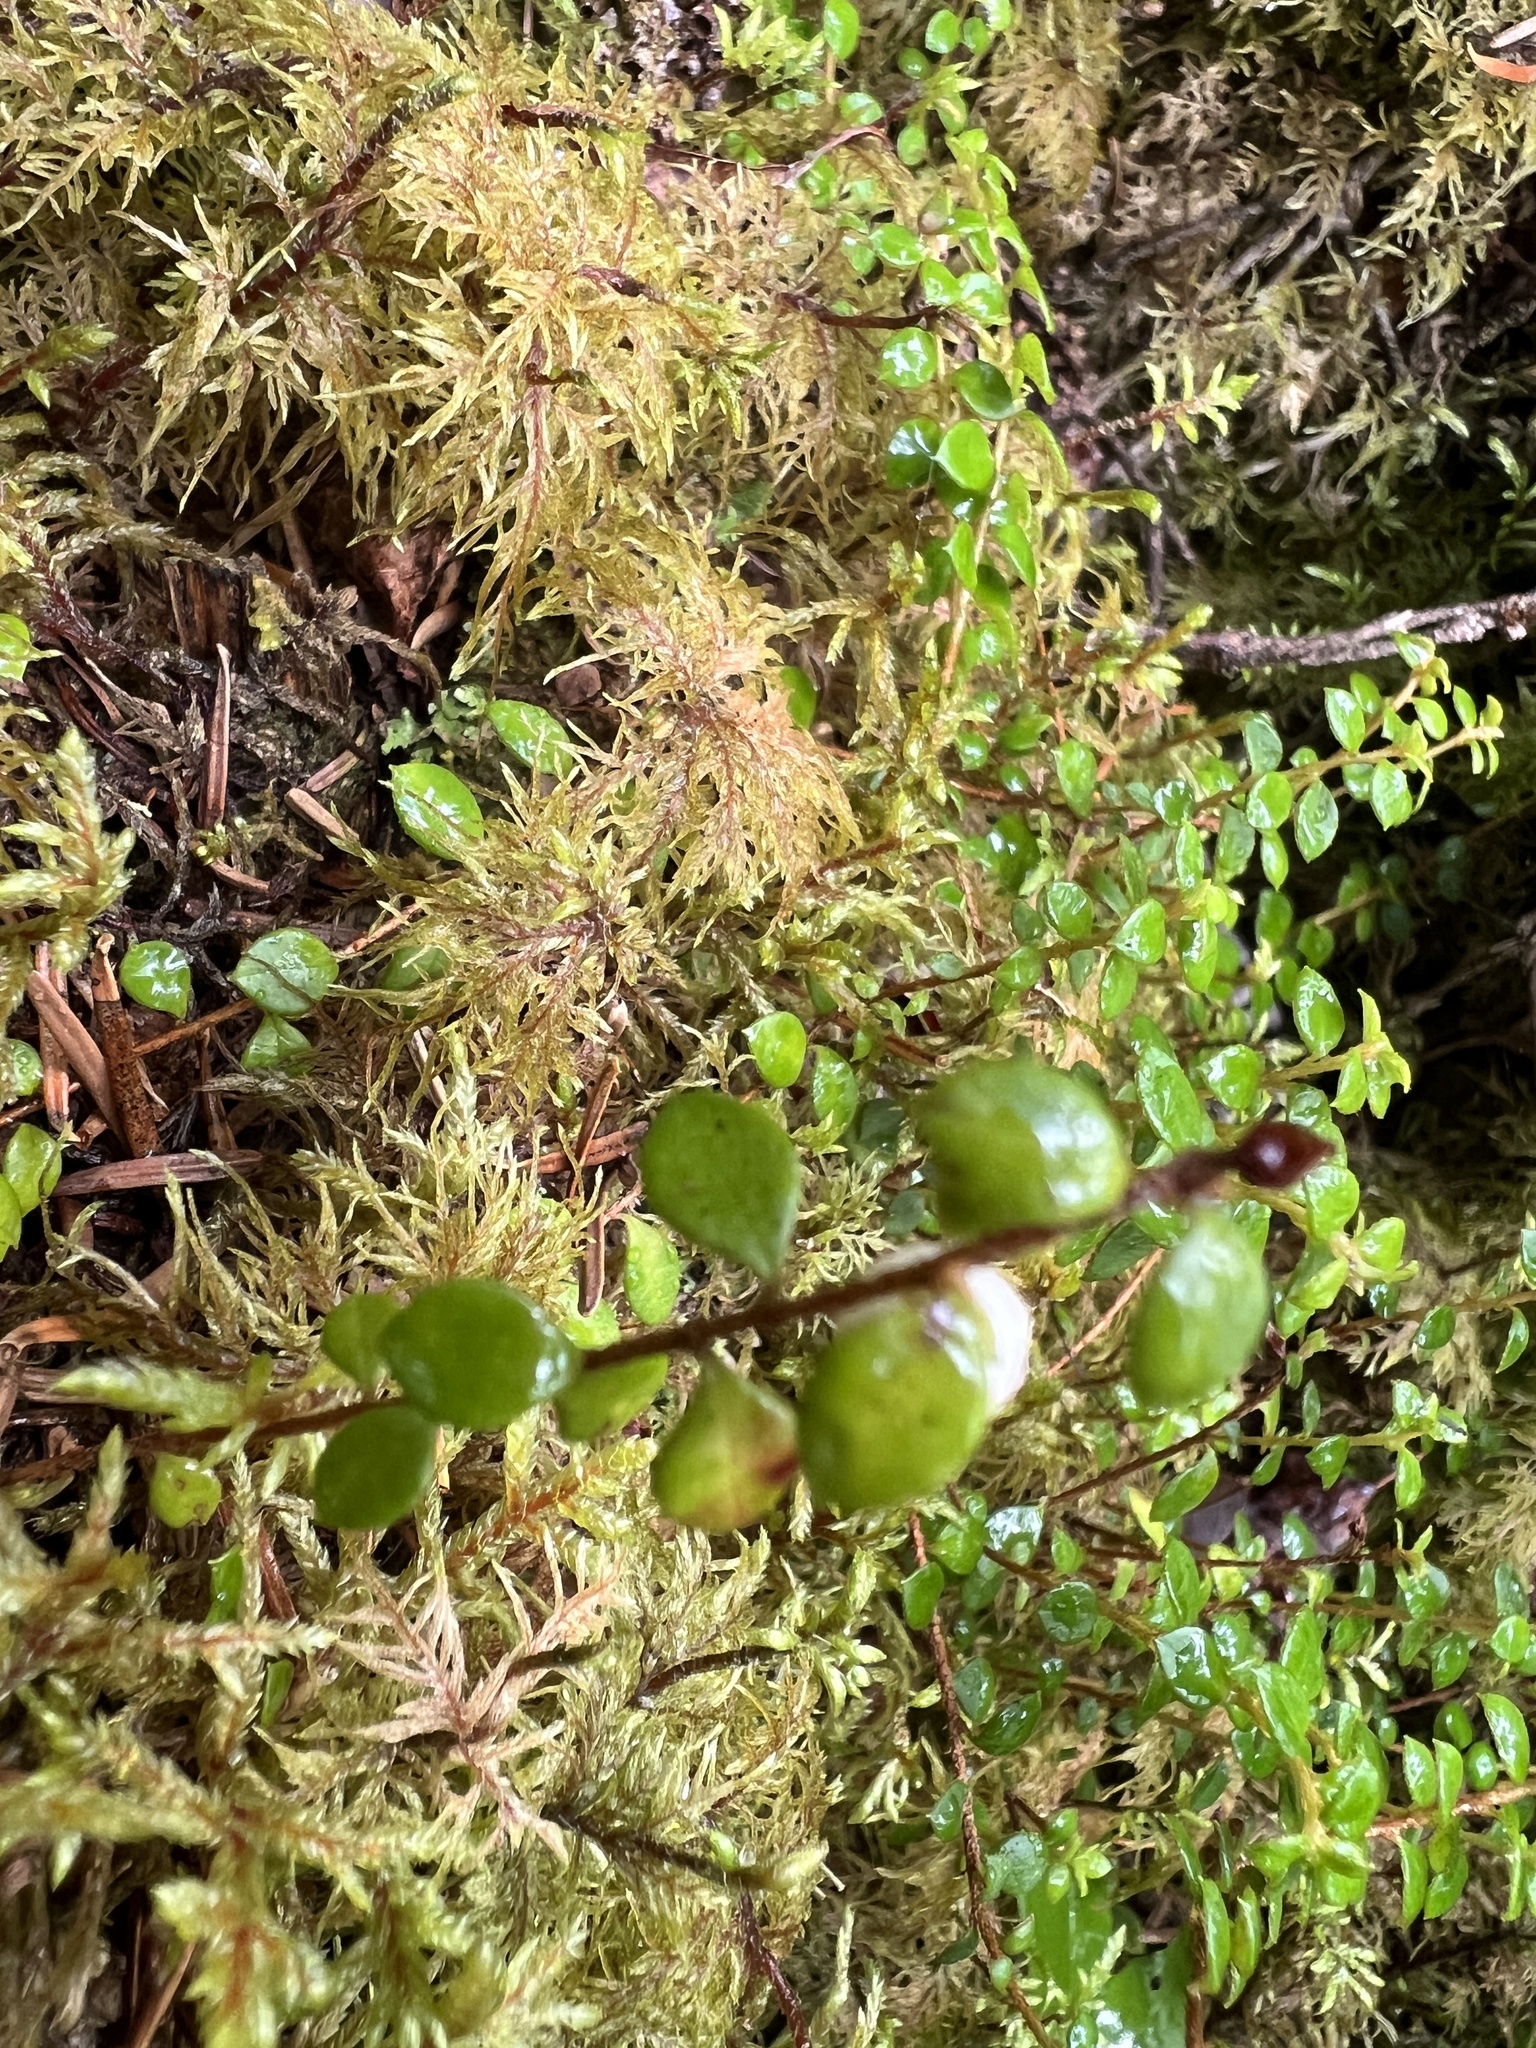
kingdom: Plantae
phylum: Tracheophyta
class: Magnoliopsida
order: Ericales
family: Ericaceae
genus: Gaultheria
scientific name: Gaultheria hispidula
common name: Cancer wintergreen
